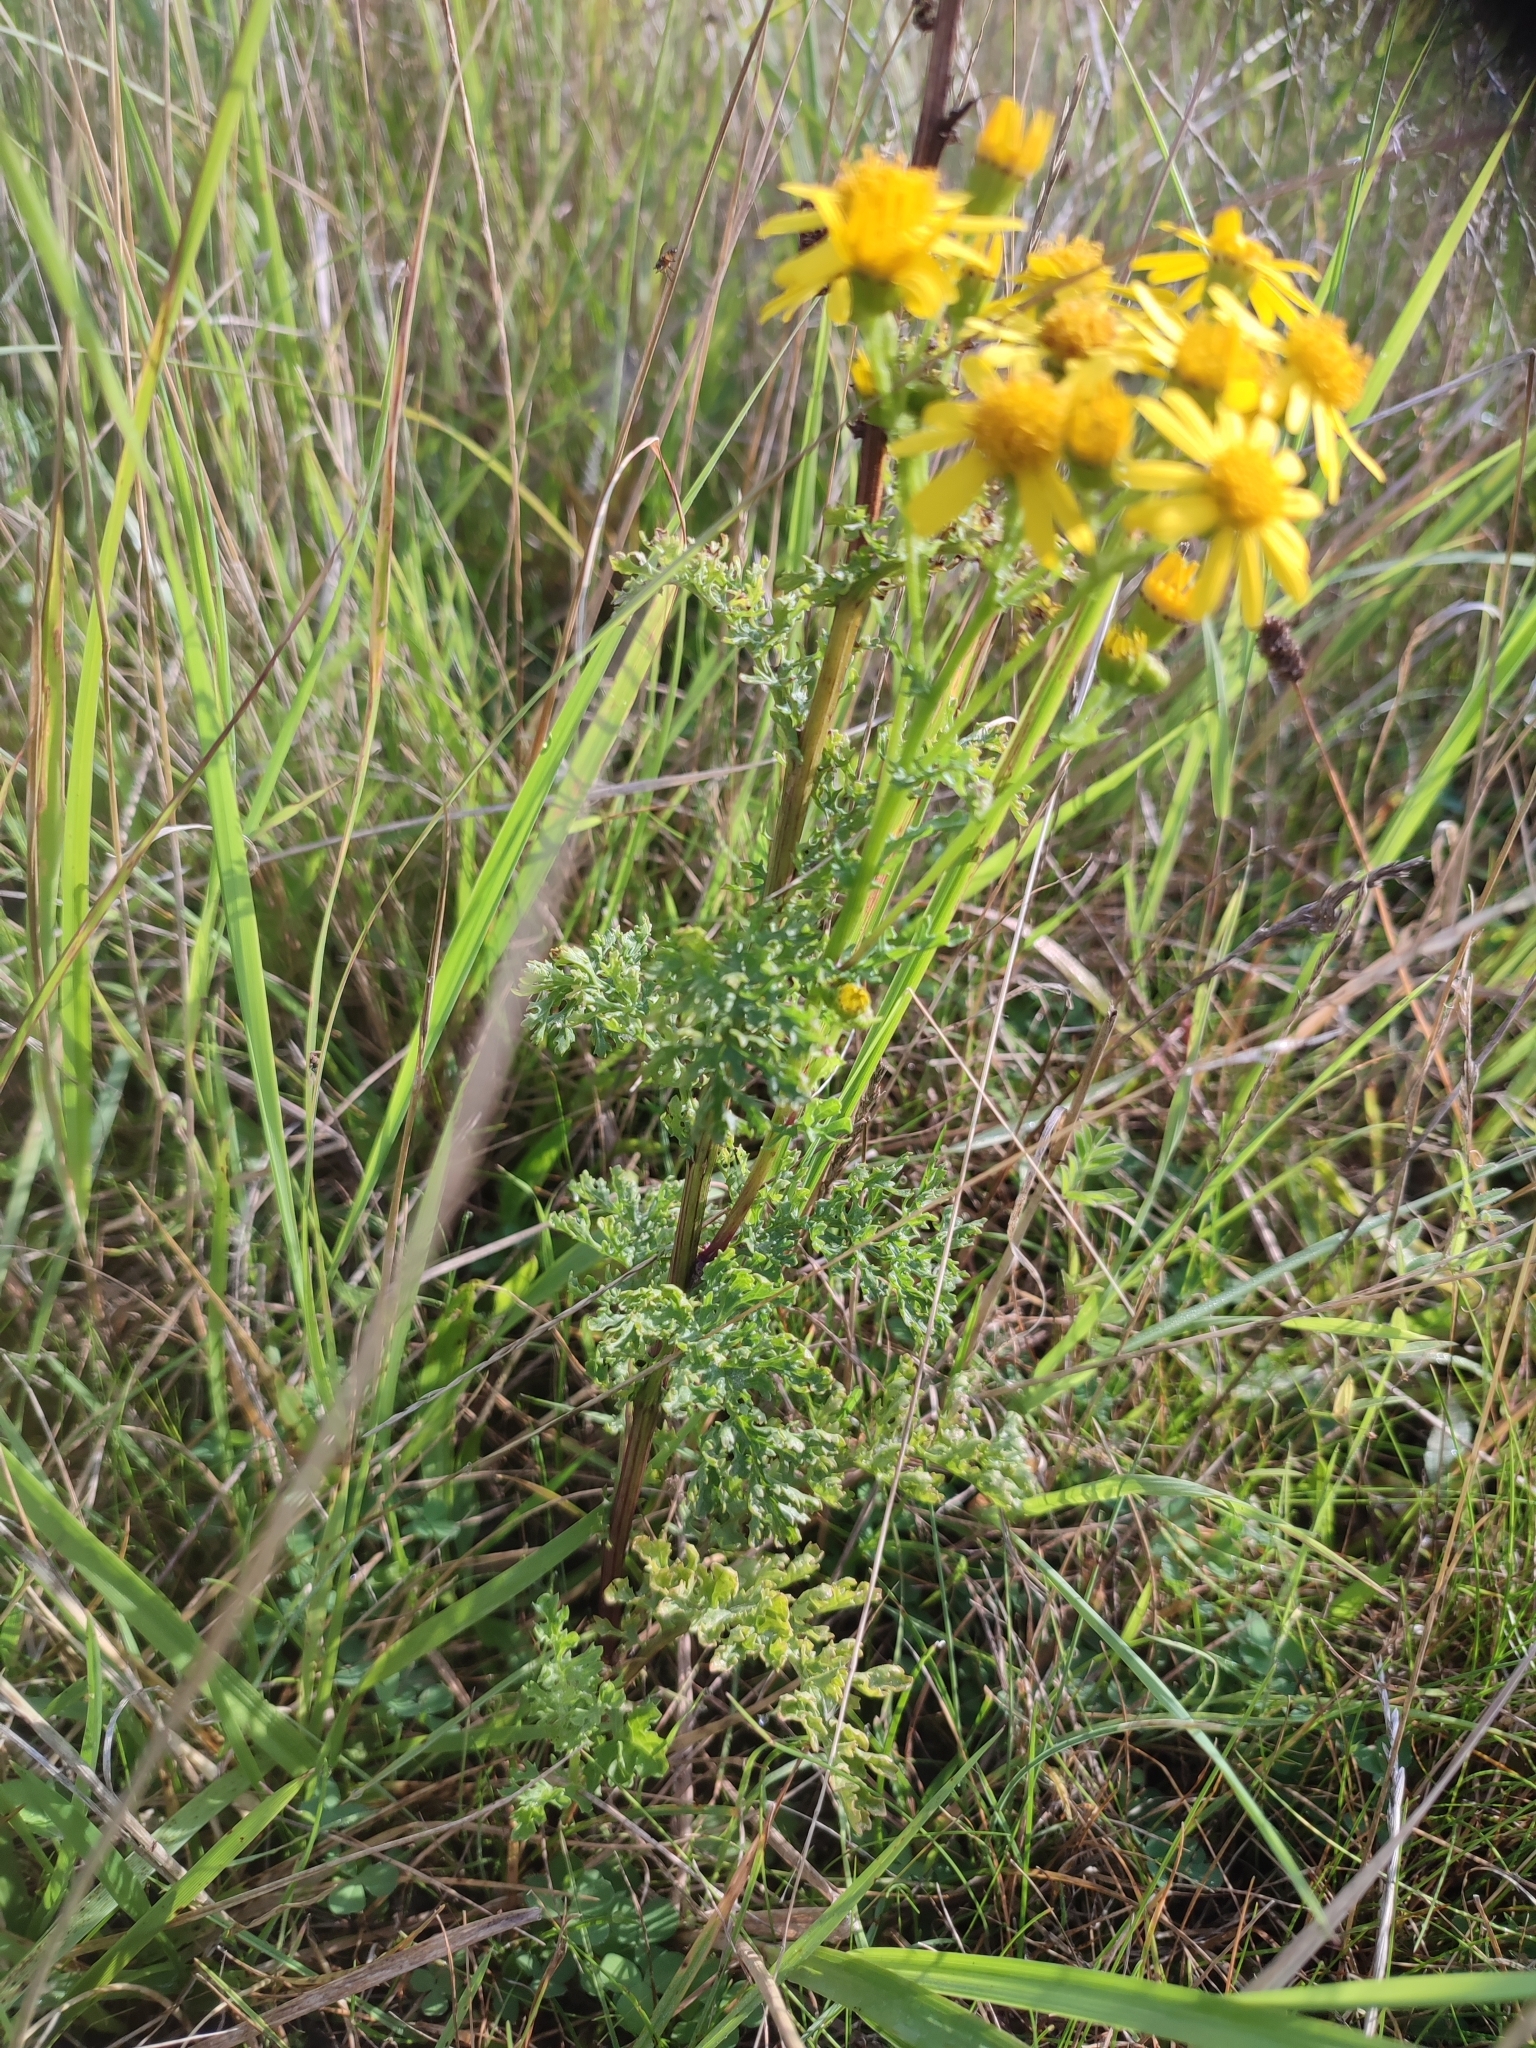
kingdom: Plantae
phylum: Tracheophyta
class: Magnoliopsida
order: Asterales
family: Asteraceae
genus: Jacobaea
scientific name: Jacobaea vulgaris
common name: Stinking willie
